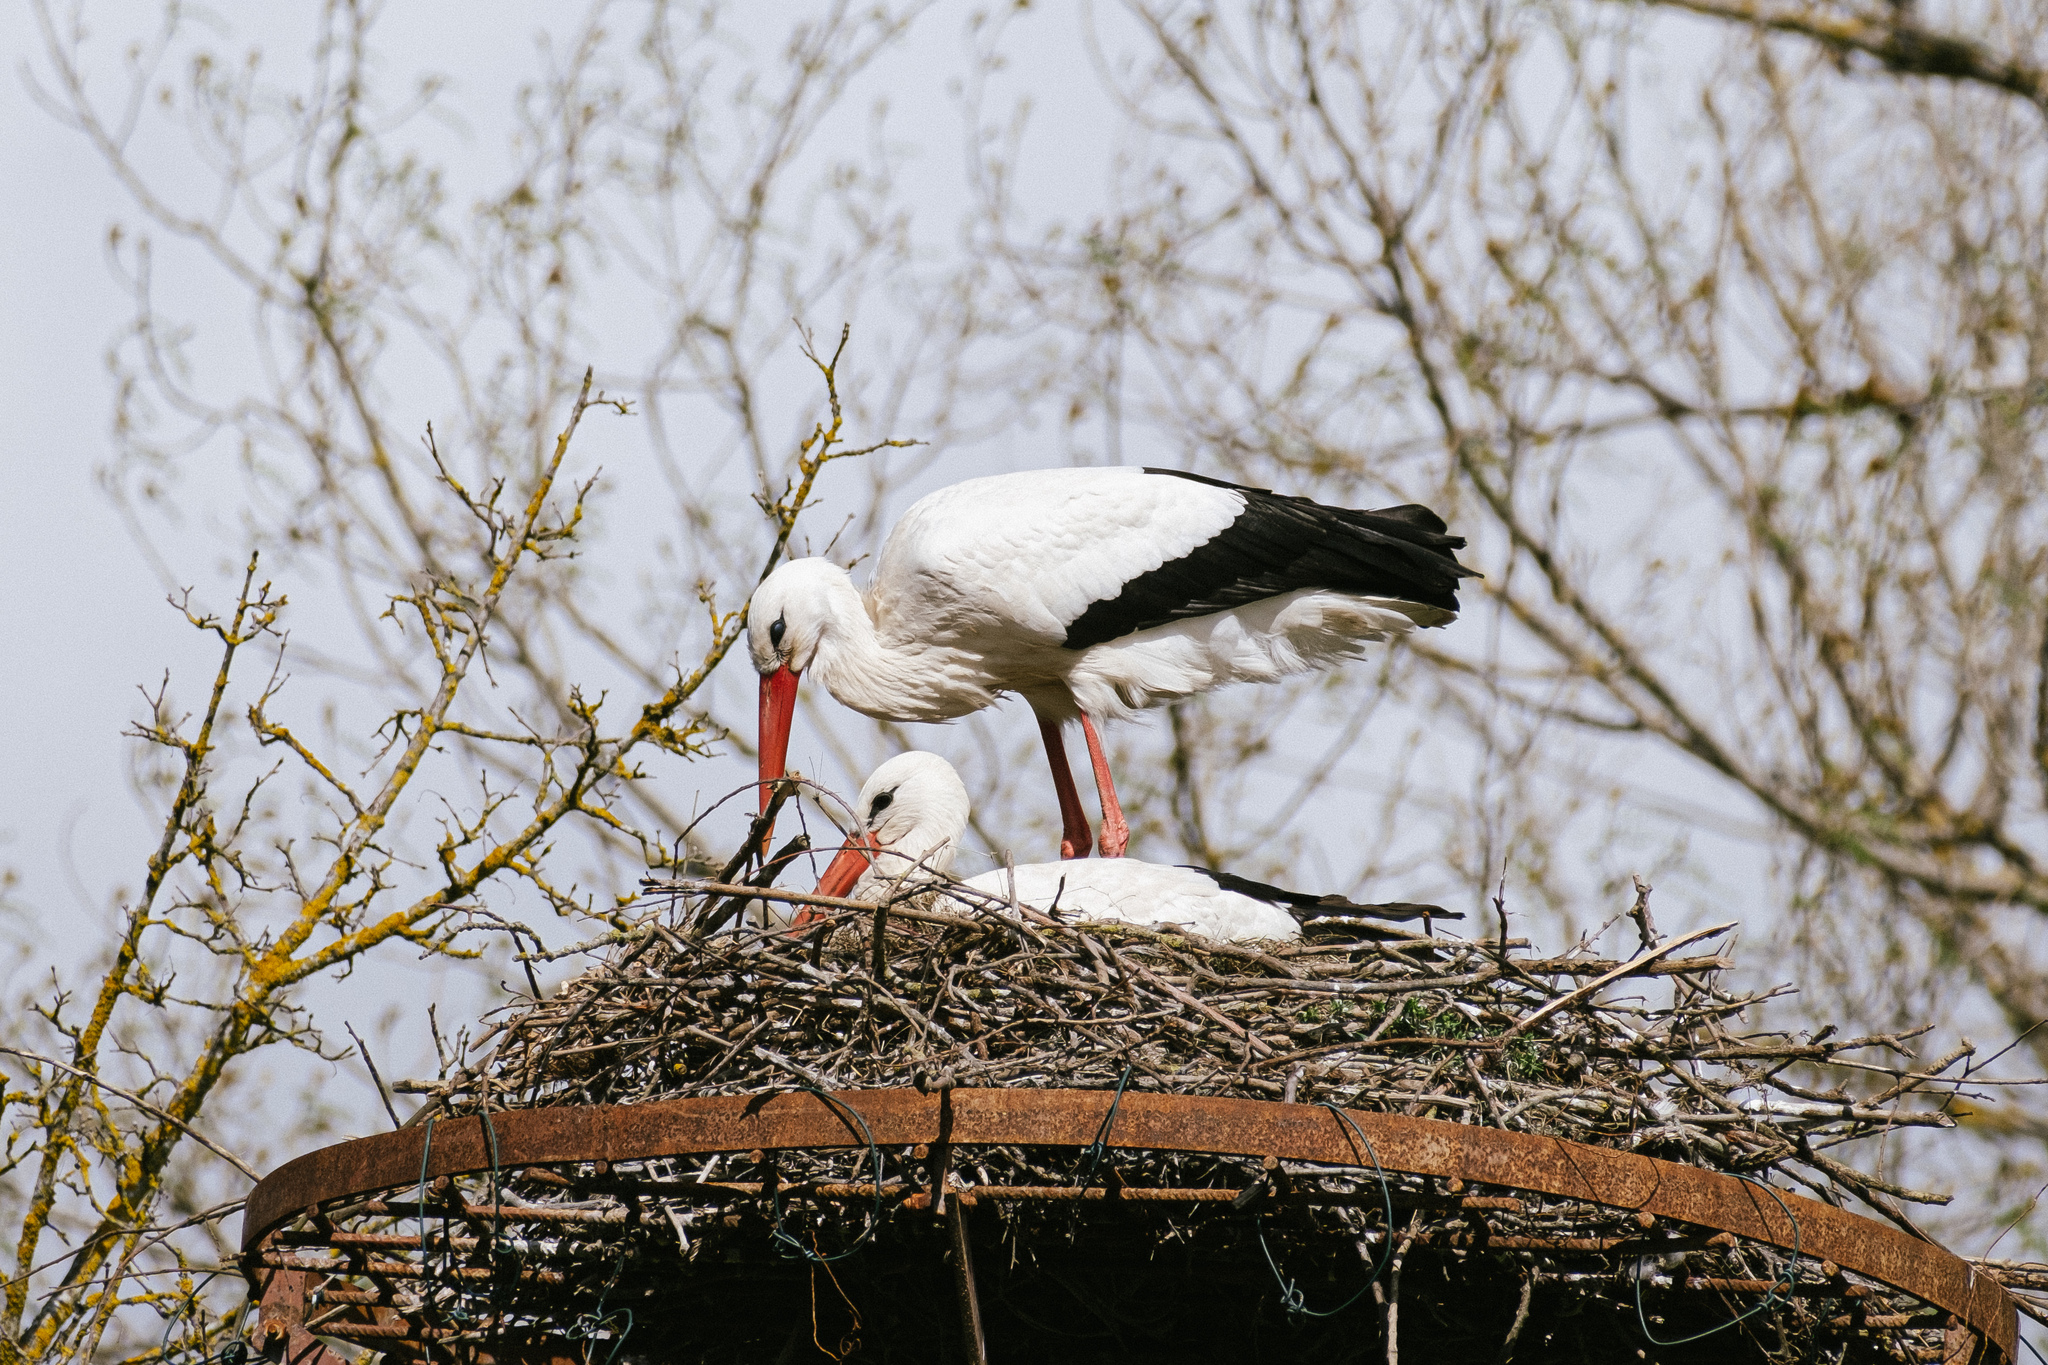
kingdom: Animalia
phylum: Chordata
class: Aves
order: Ciconiiformes
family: Ciconiidae
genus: Ciconia
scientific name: Ciconia ciconia
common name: White stork
